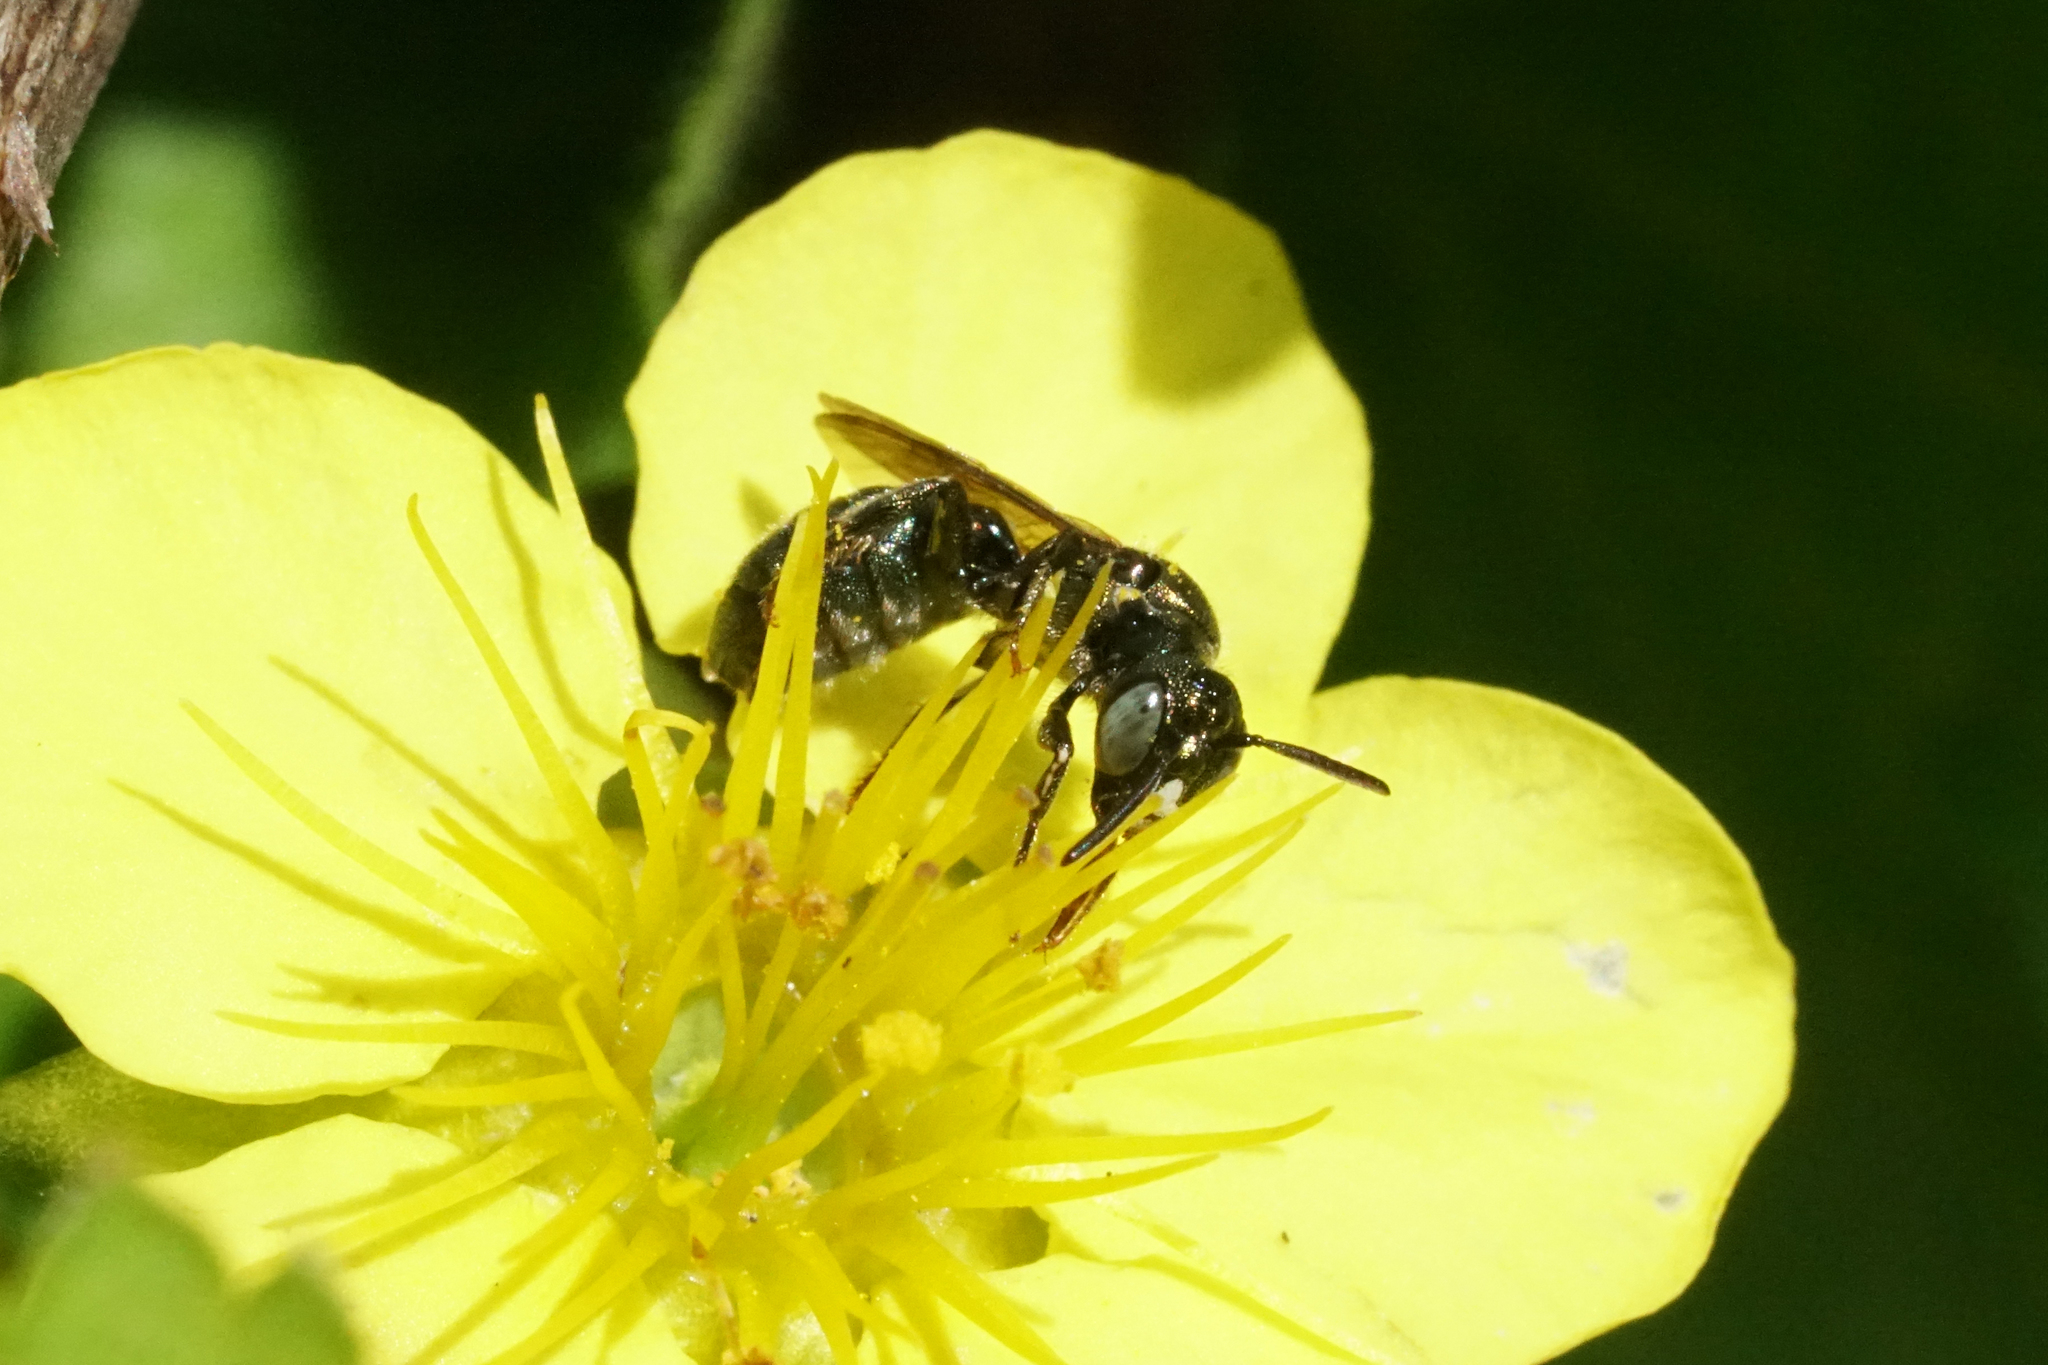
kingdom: Animalia
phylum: Arthropoda
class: Insecta
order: Hymenoptera
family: Apidae
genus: Ceratina
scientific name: Ceratina strenua
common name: Nimble carpenter bee
